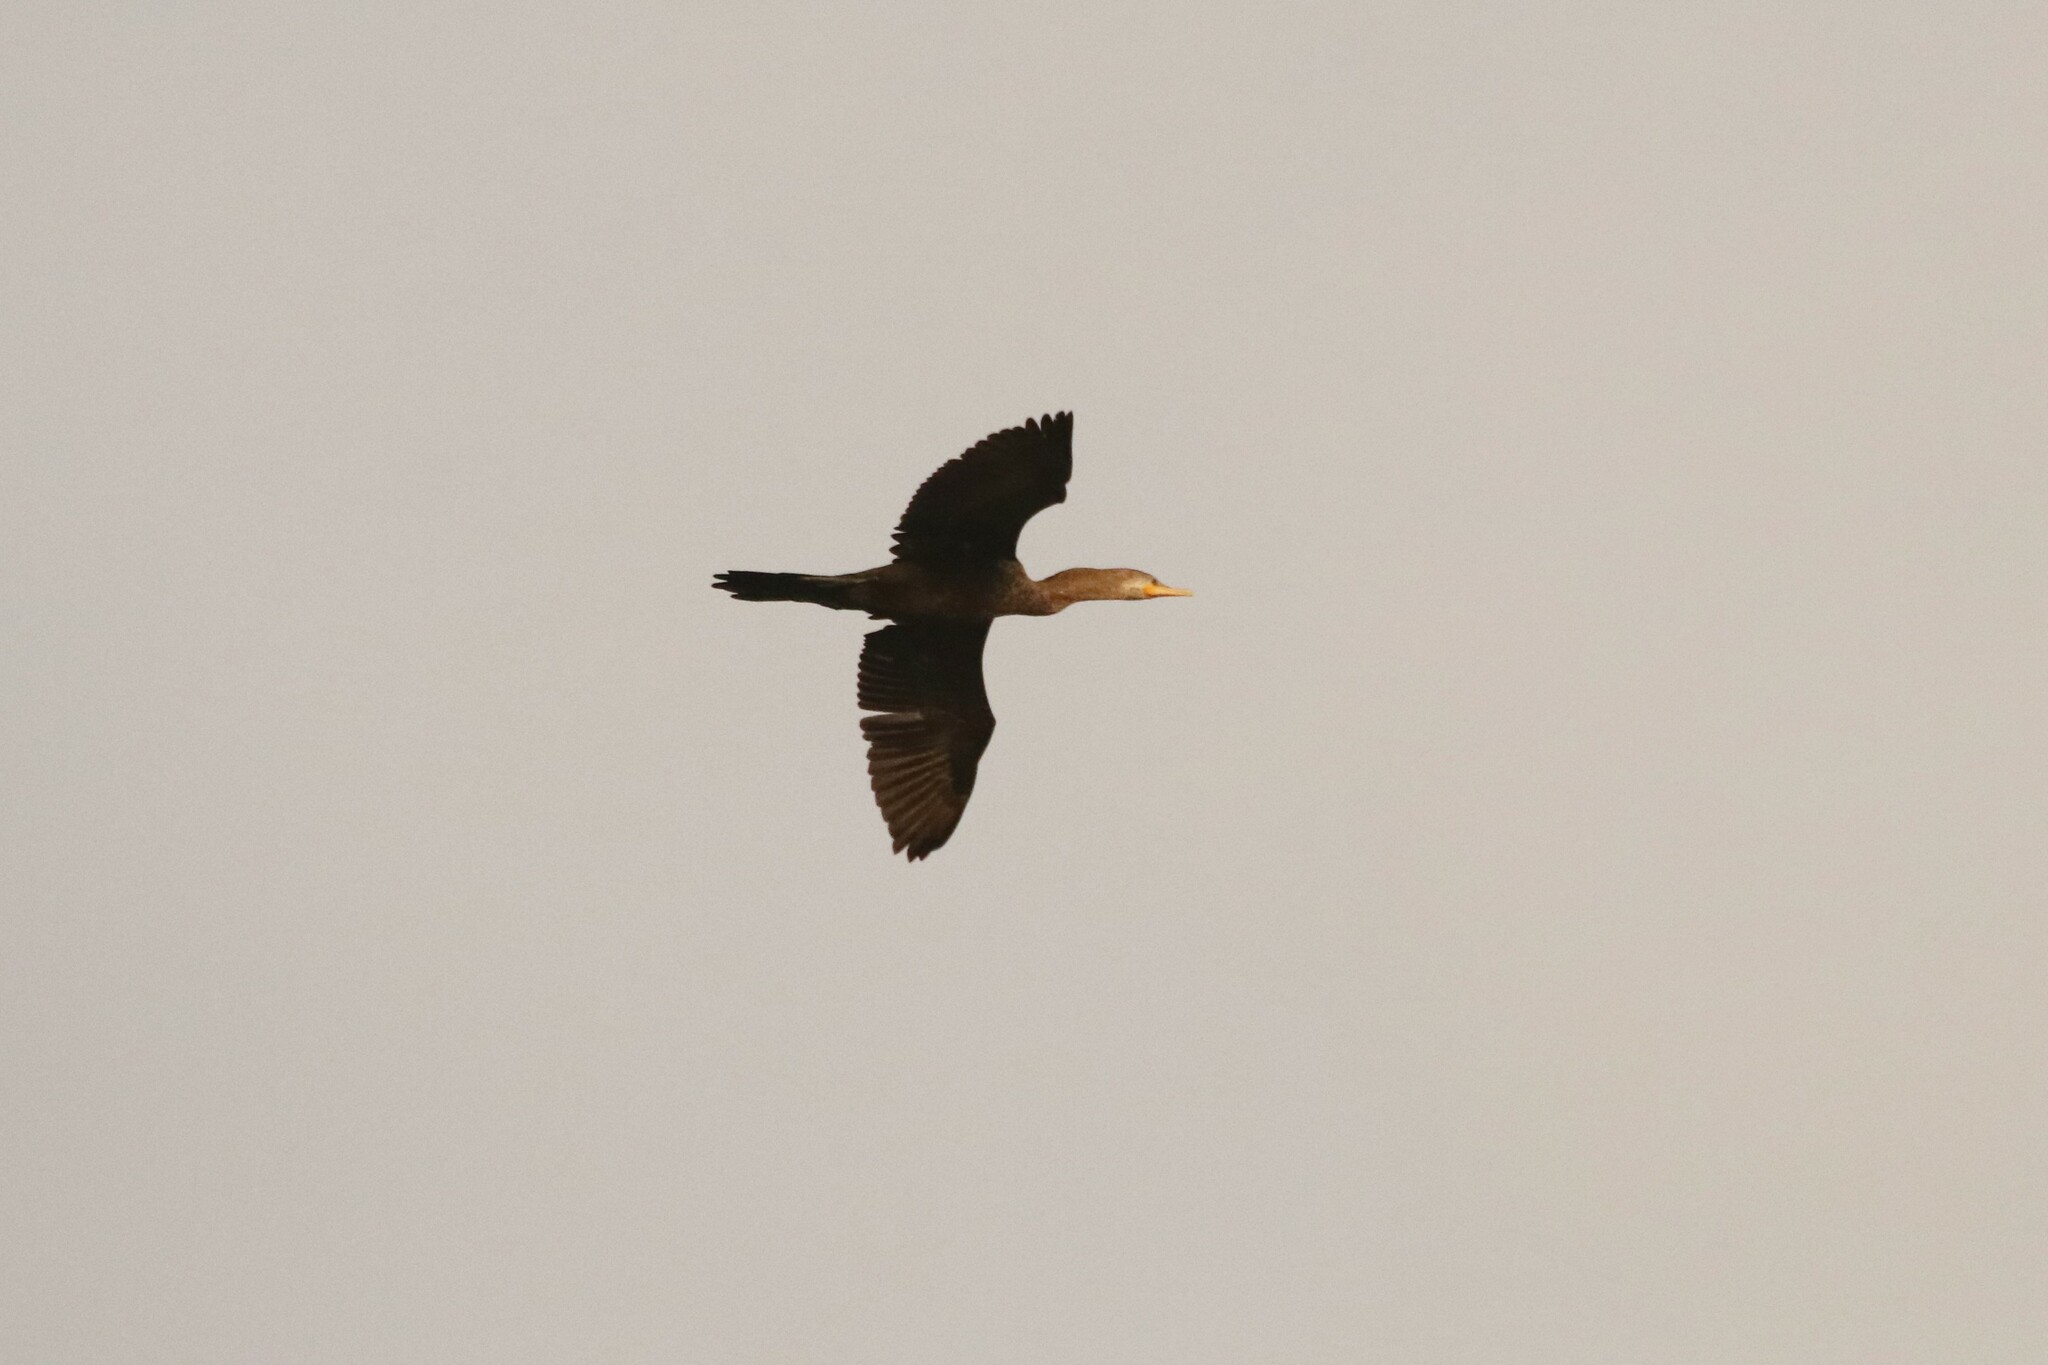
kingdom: Animalia
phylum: Chordata
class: Aves
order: Suliformes
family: Phalacrocoracidae
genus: Phalacrocorax
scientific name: Phalacrocorax brasilianus
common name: Neotropic cormorant
